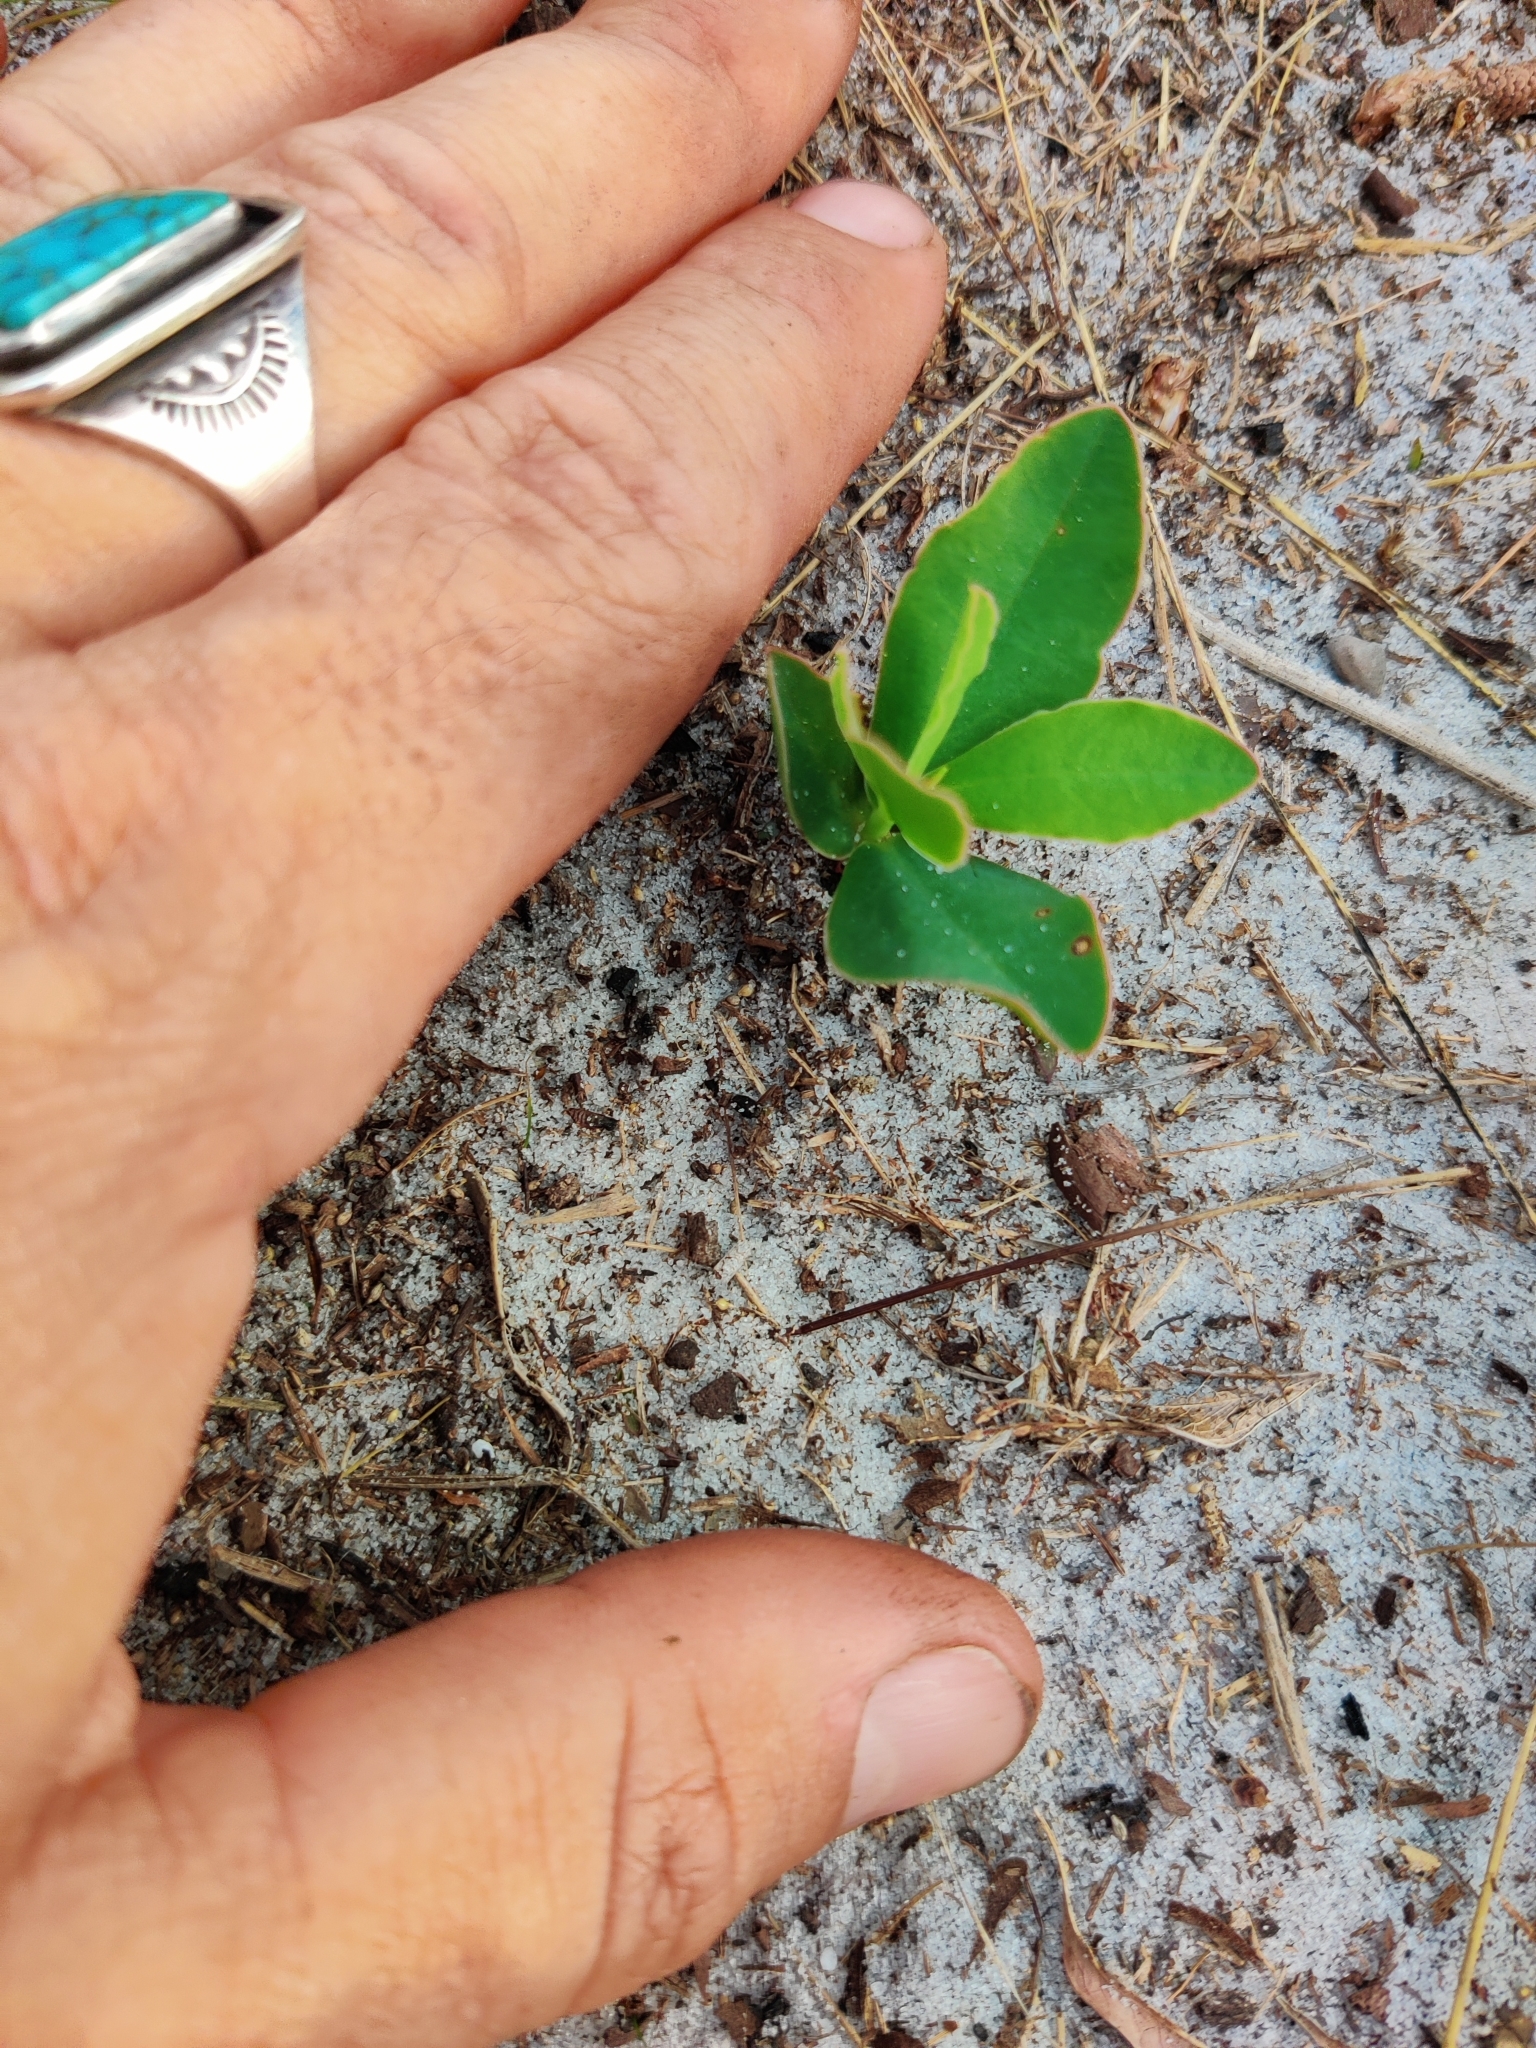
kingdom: Plantae
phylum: Tracheophyta
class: Magnoliopsida
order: Malpighiales
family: Euphorbiaceae
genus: Euphorbia
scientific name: Euphorbia telephioides
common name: Telephus spurge
